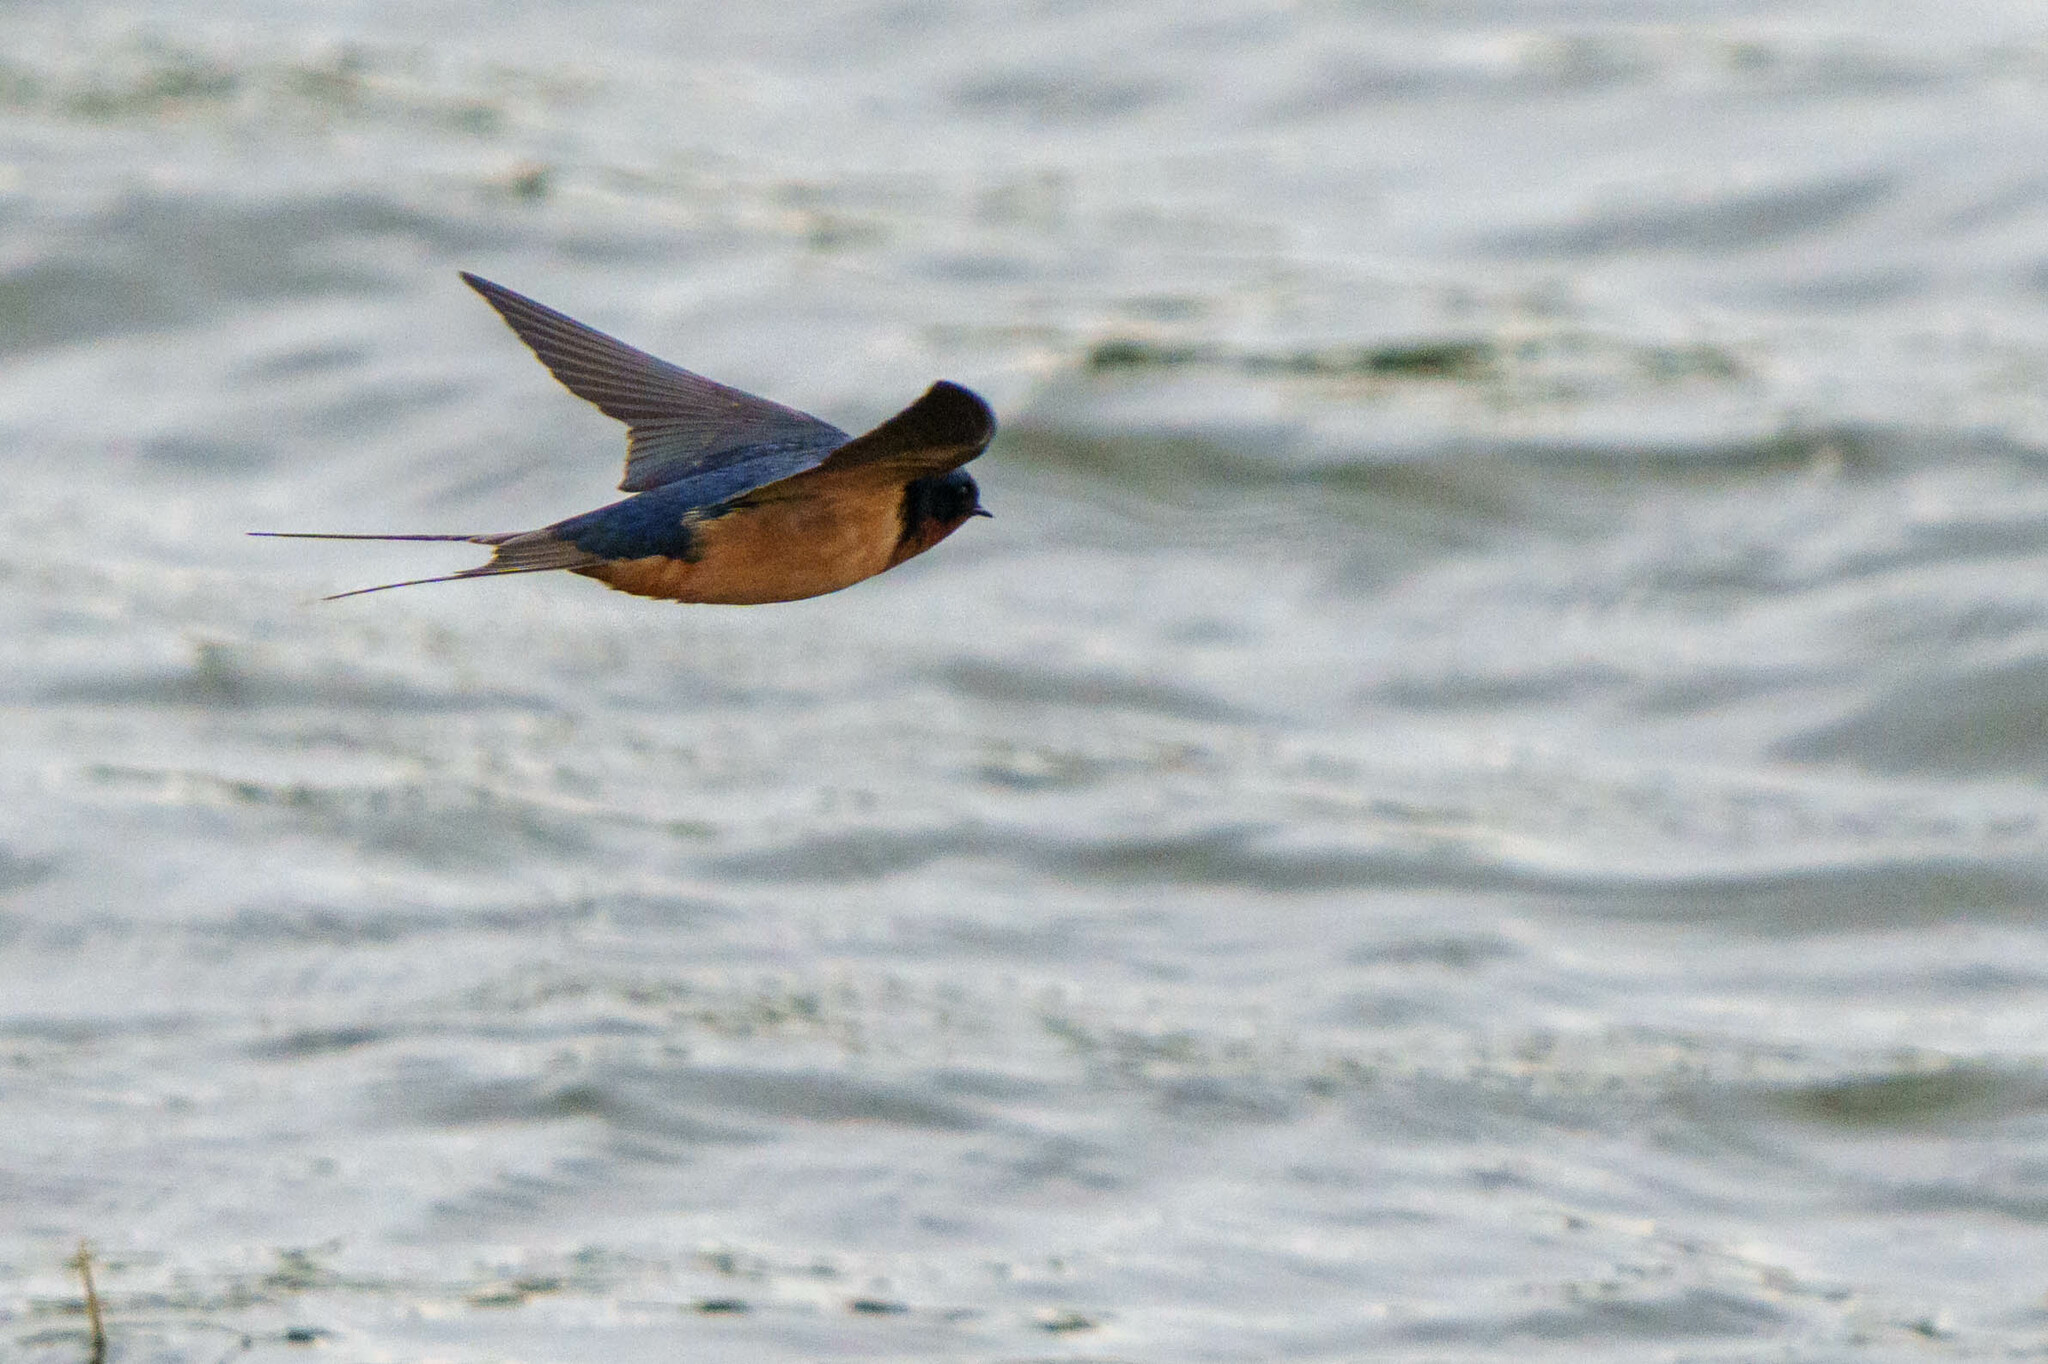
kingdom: Animalia
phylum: Chordata
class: Aves
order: Passeriformes
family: Hirundinidae
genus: Hirundo
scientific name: Hirundo rustica
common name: Barn swallow
